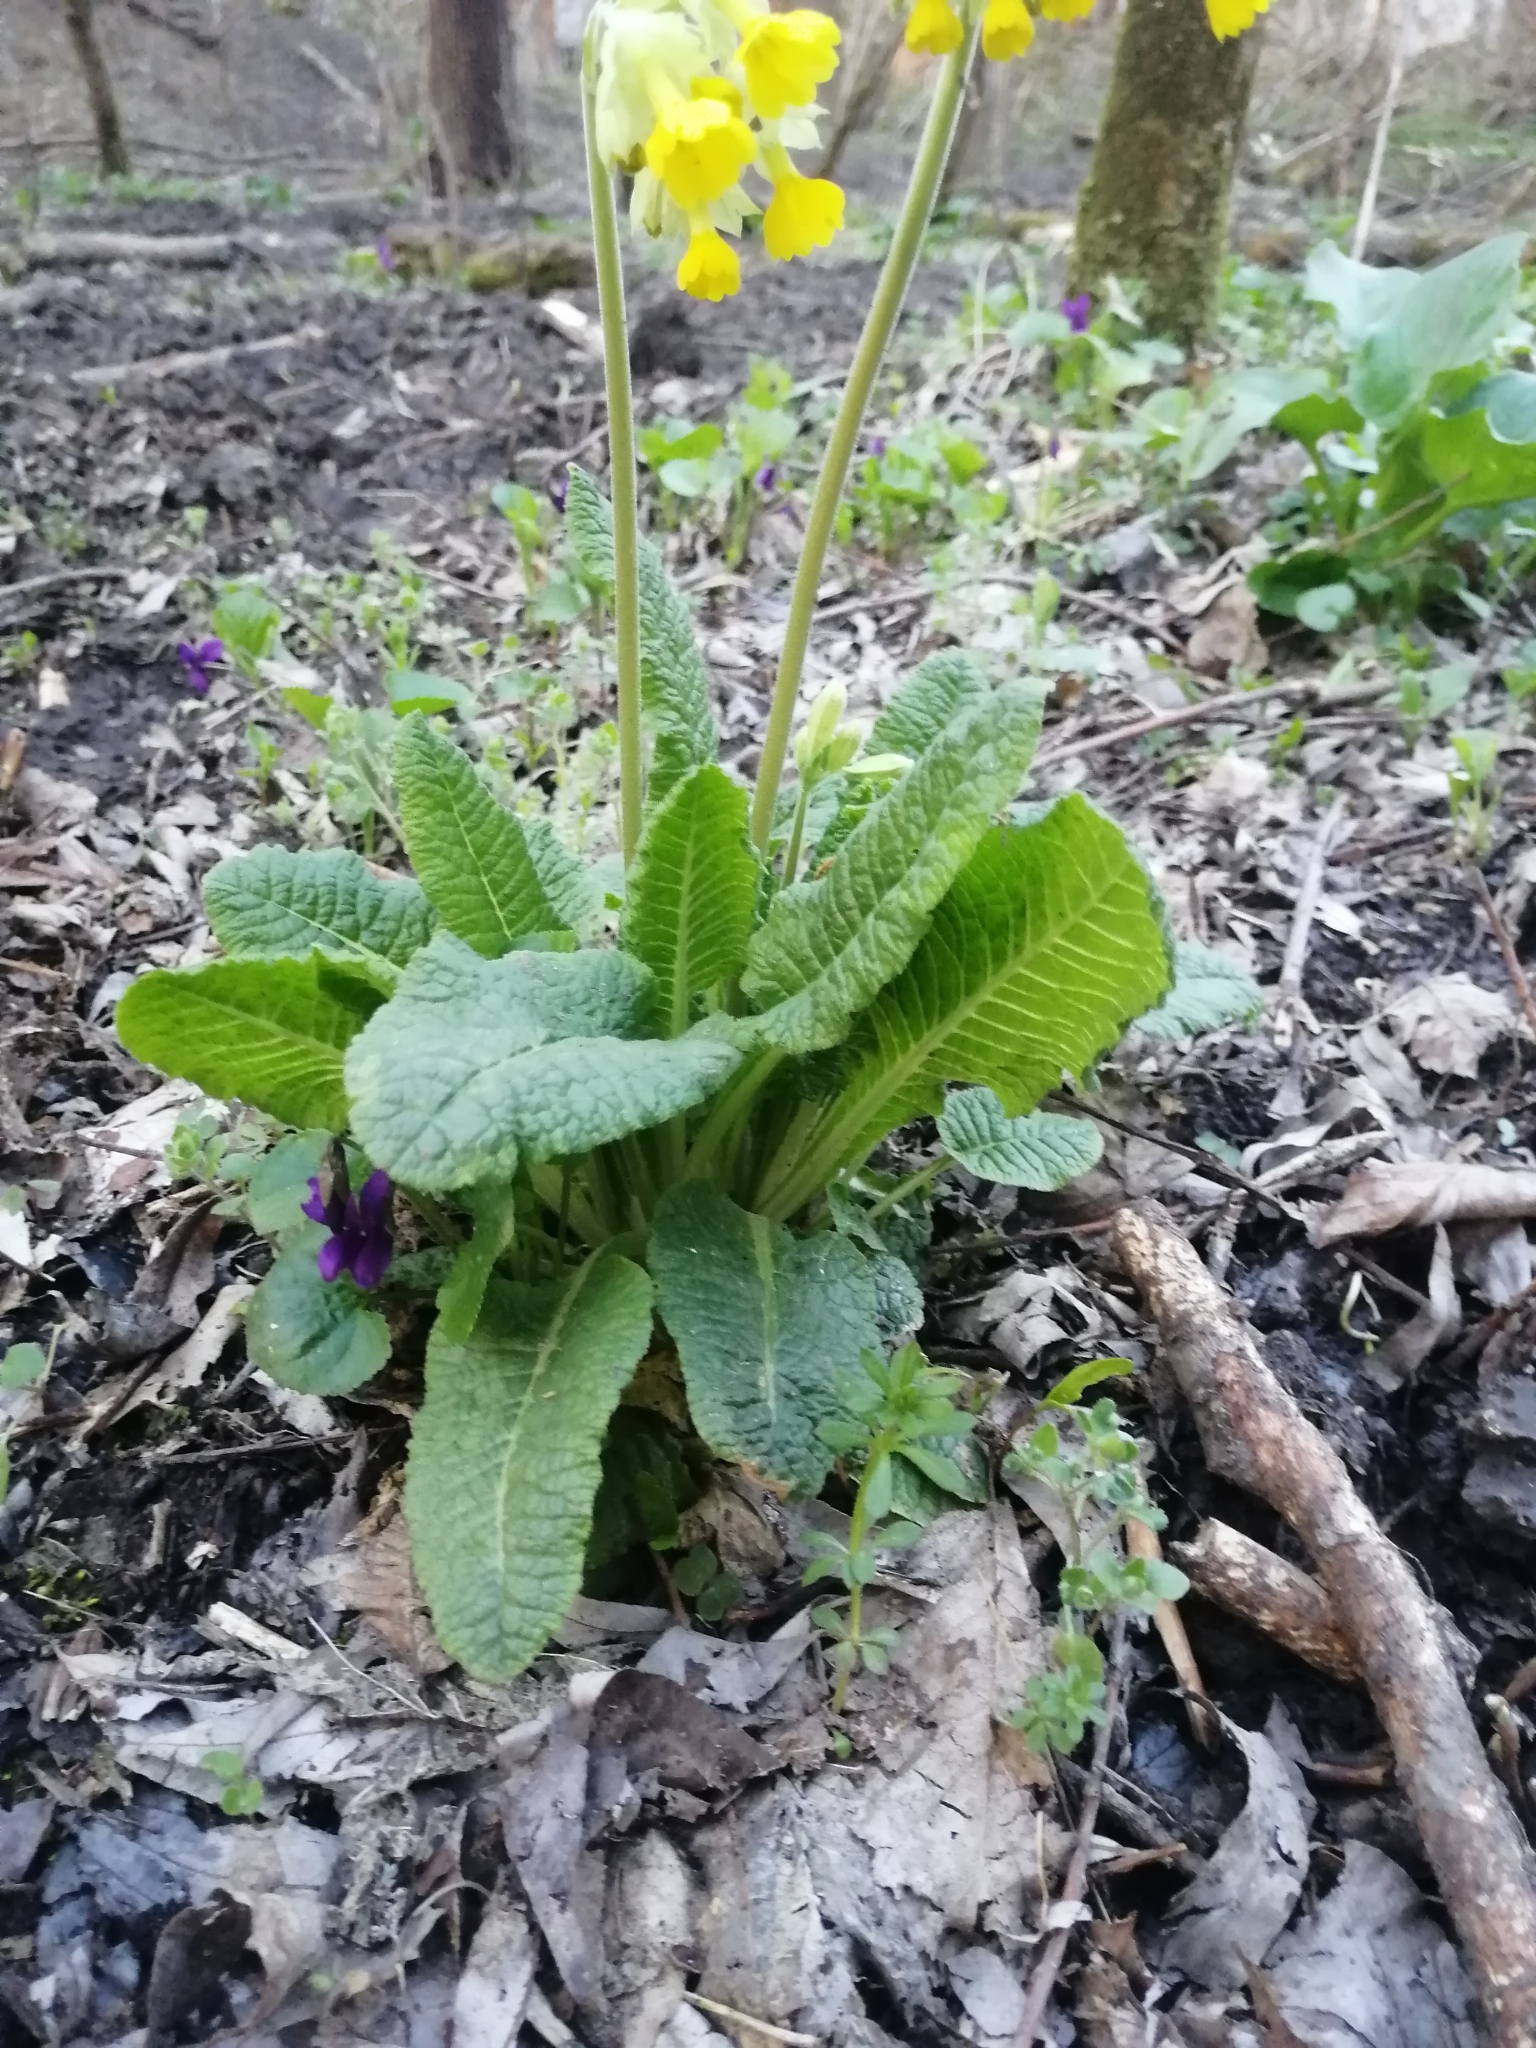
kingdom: Plantae
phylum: Tracheophyta
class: Magnoliopsida
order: Ericales
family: Primulaceae
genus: Primula
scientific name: Primula veris
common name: Cowslip
